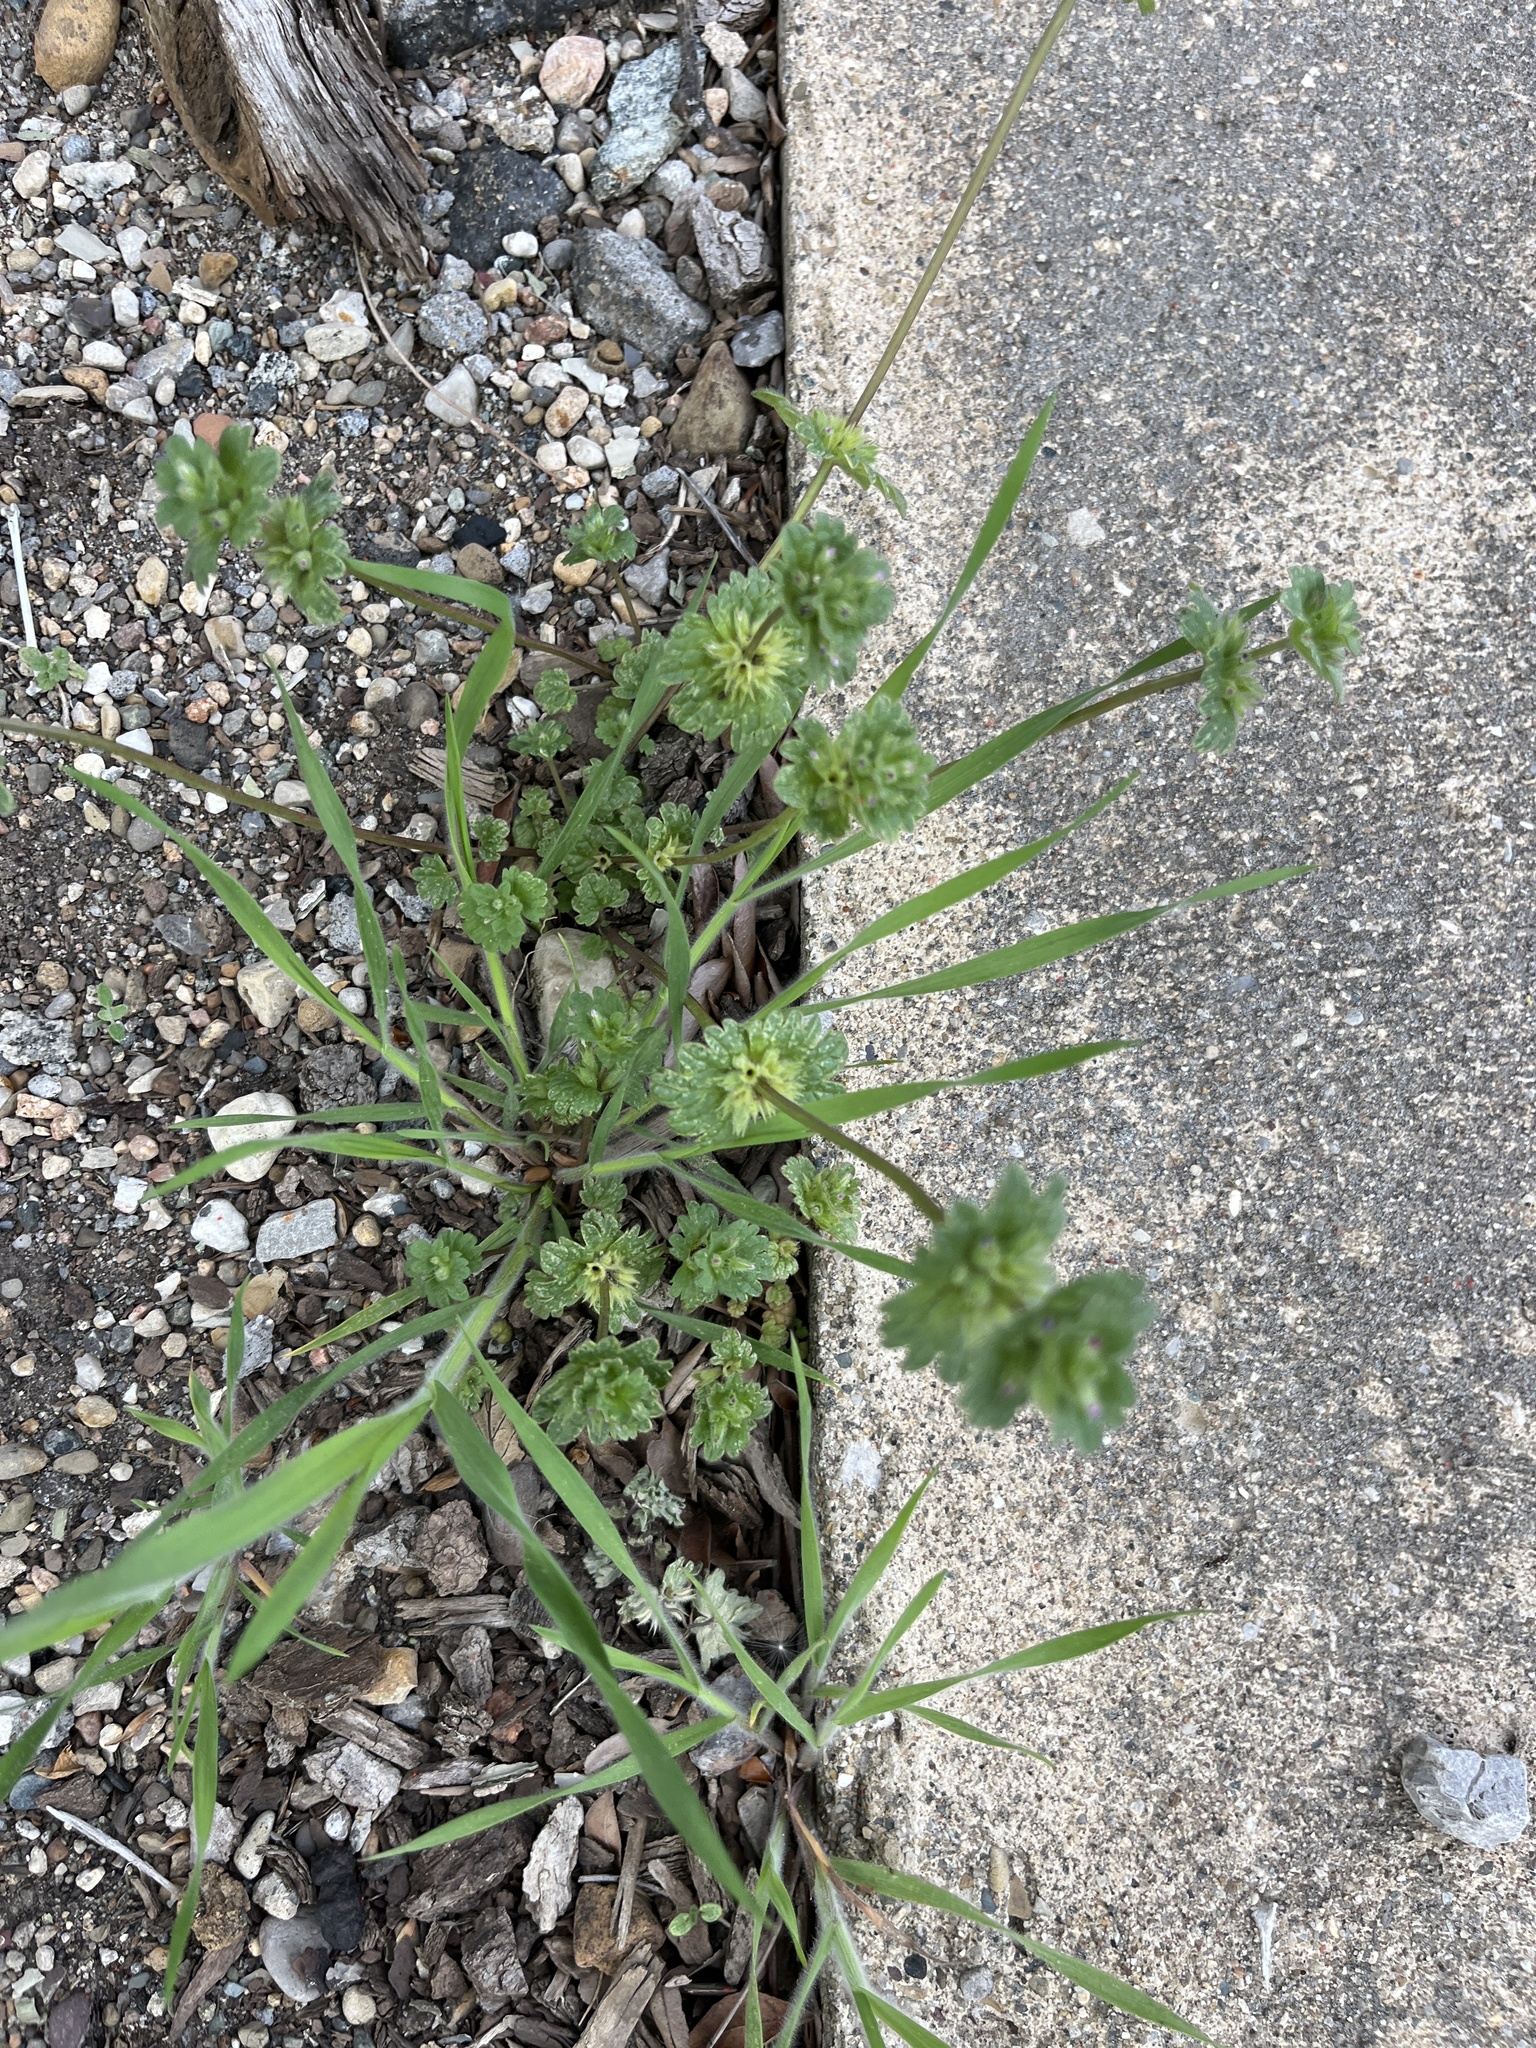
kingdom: Plantae
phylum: Tracheophyta
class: Magnoliopsida
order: Lamiales
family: Lamiaceae
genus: Lamium
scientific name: Lamium amplexicaule
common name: Henbit dead-nettle
